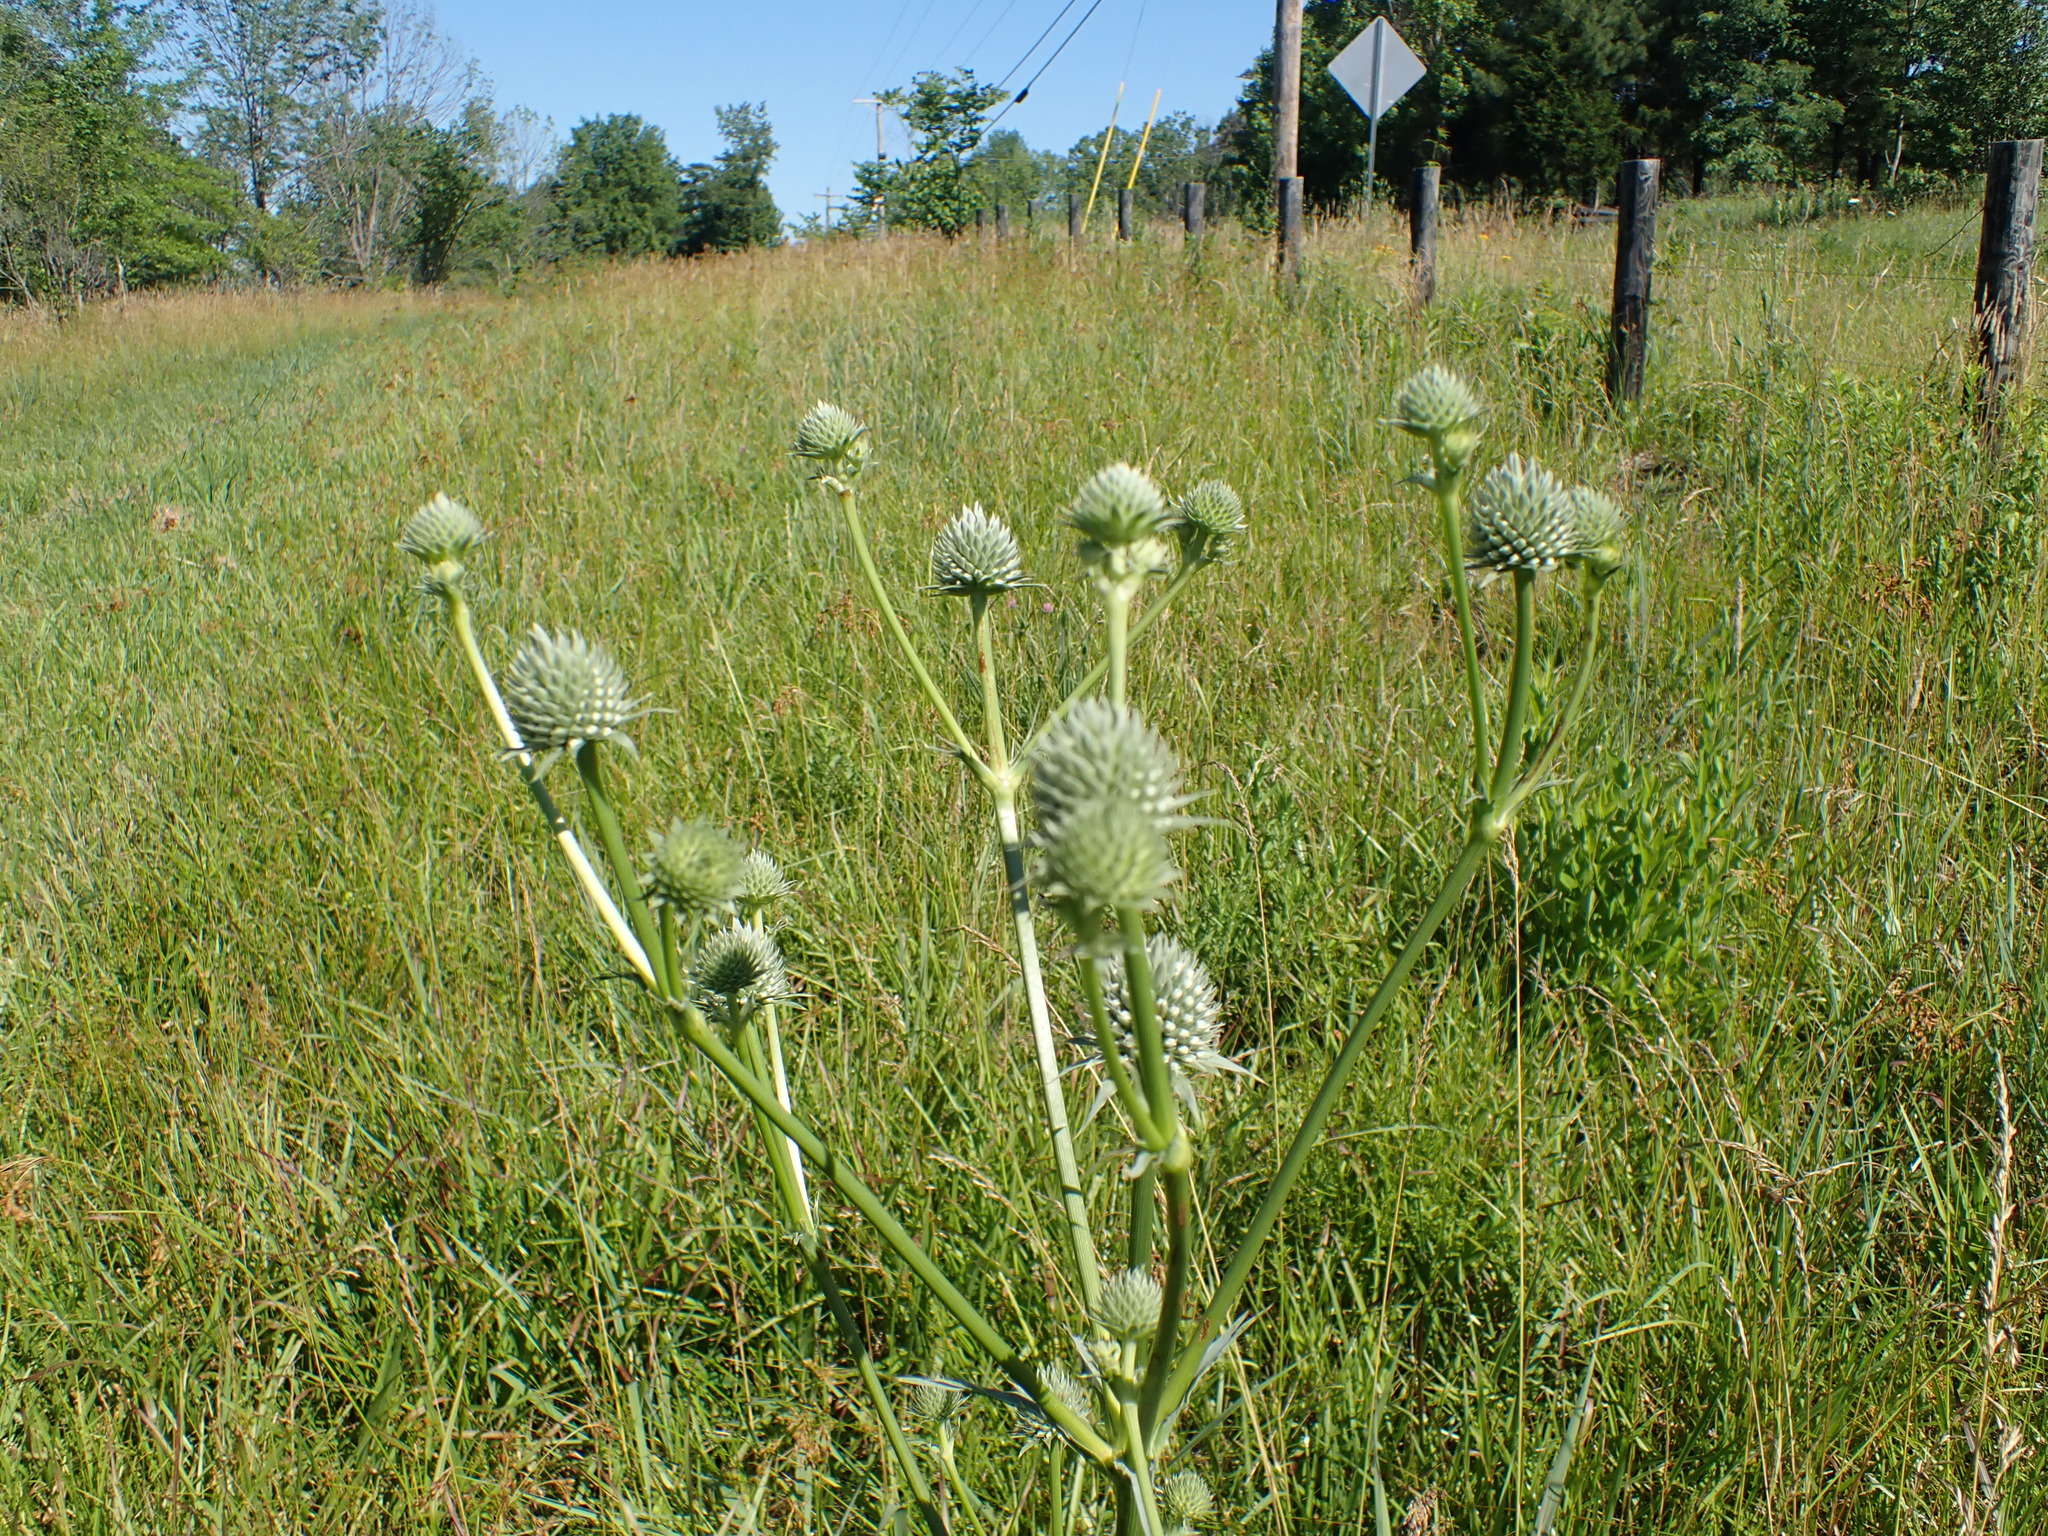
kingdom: Plantae
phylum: Tracheophyta
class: Magnoliopsida
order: Apiales
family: Apiaceae
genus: Eryngium
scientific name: Eryngium yuccifolium
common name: Button eryngo
